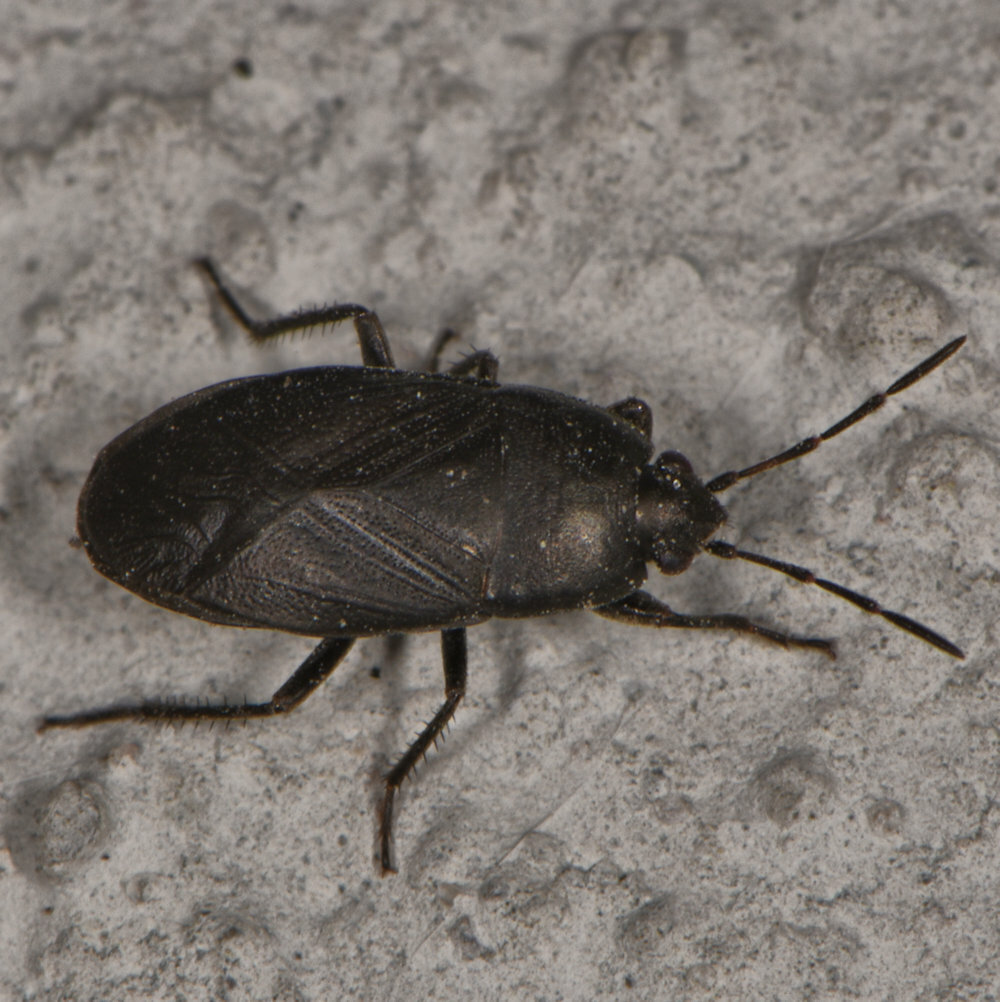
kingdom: Animalia
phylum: Arthropoda
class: Insecta
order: Hemiptera
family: Rhyparochromidae
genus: Atrazonotus
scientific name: Atrazonotus umbrosus
